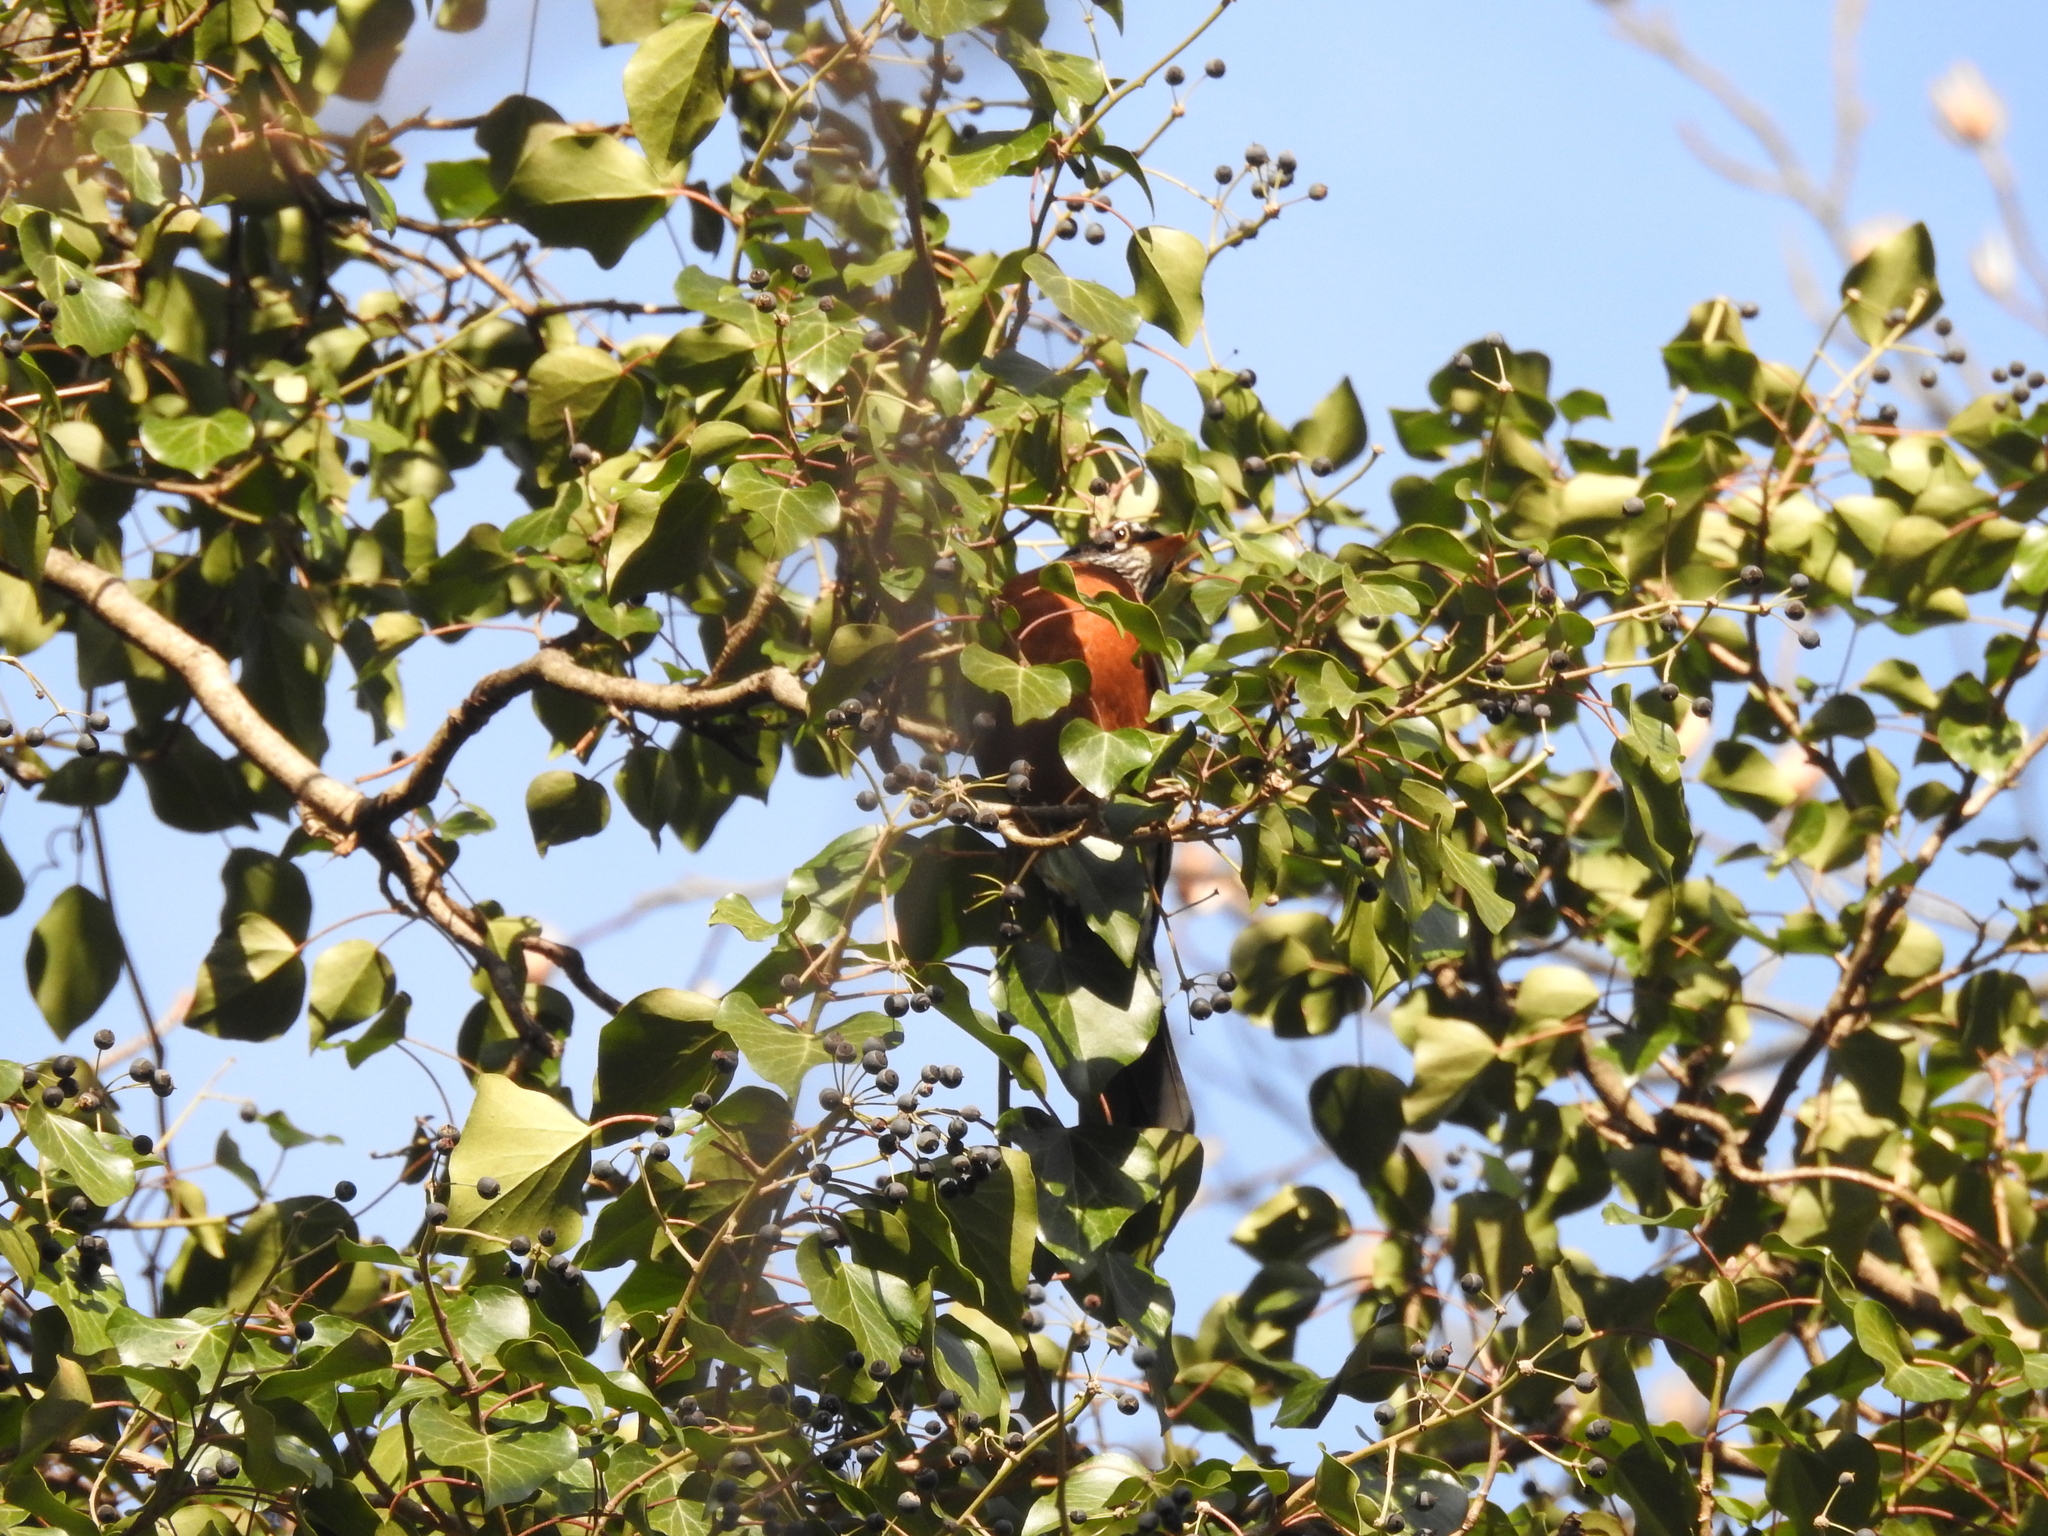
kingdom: Animalia
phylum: Chordata
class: Aves
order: Passeriformes
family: Turdidae
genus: Turdus
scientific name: Turdus migratorius
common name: American robin
